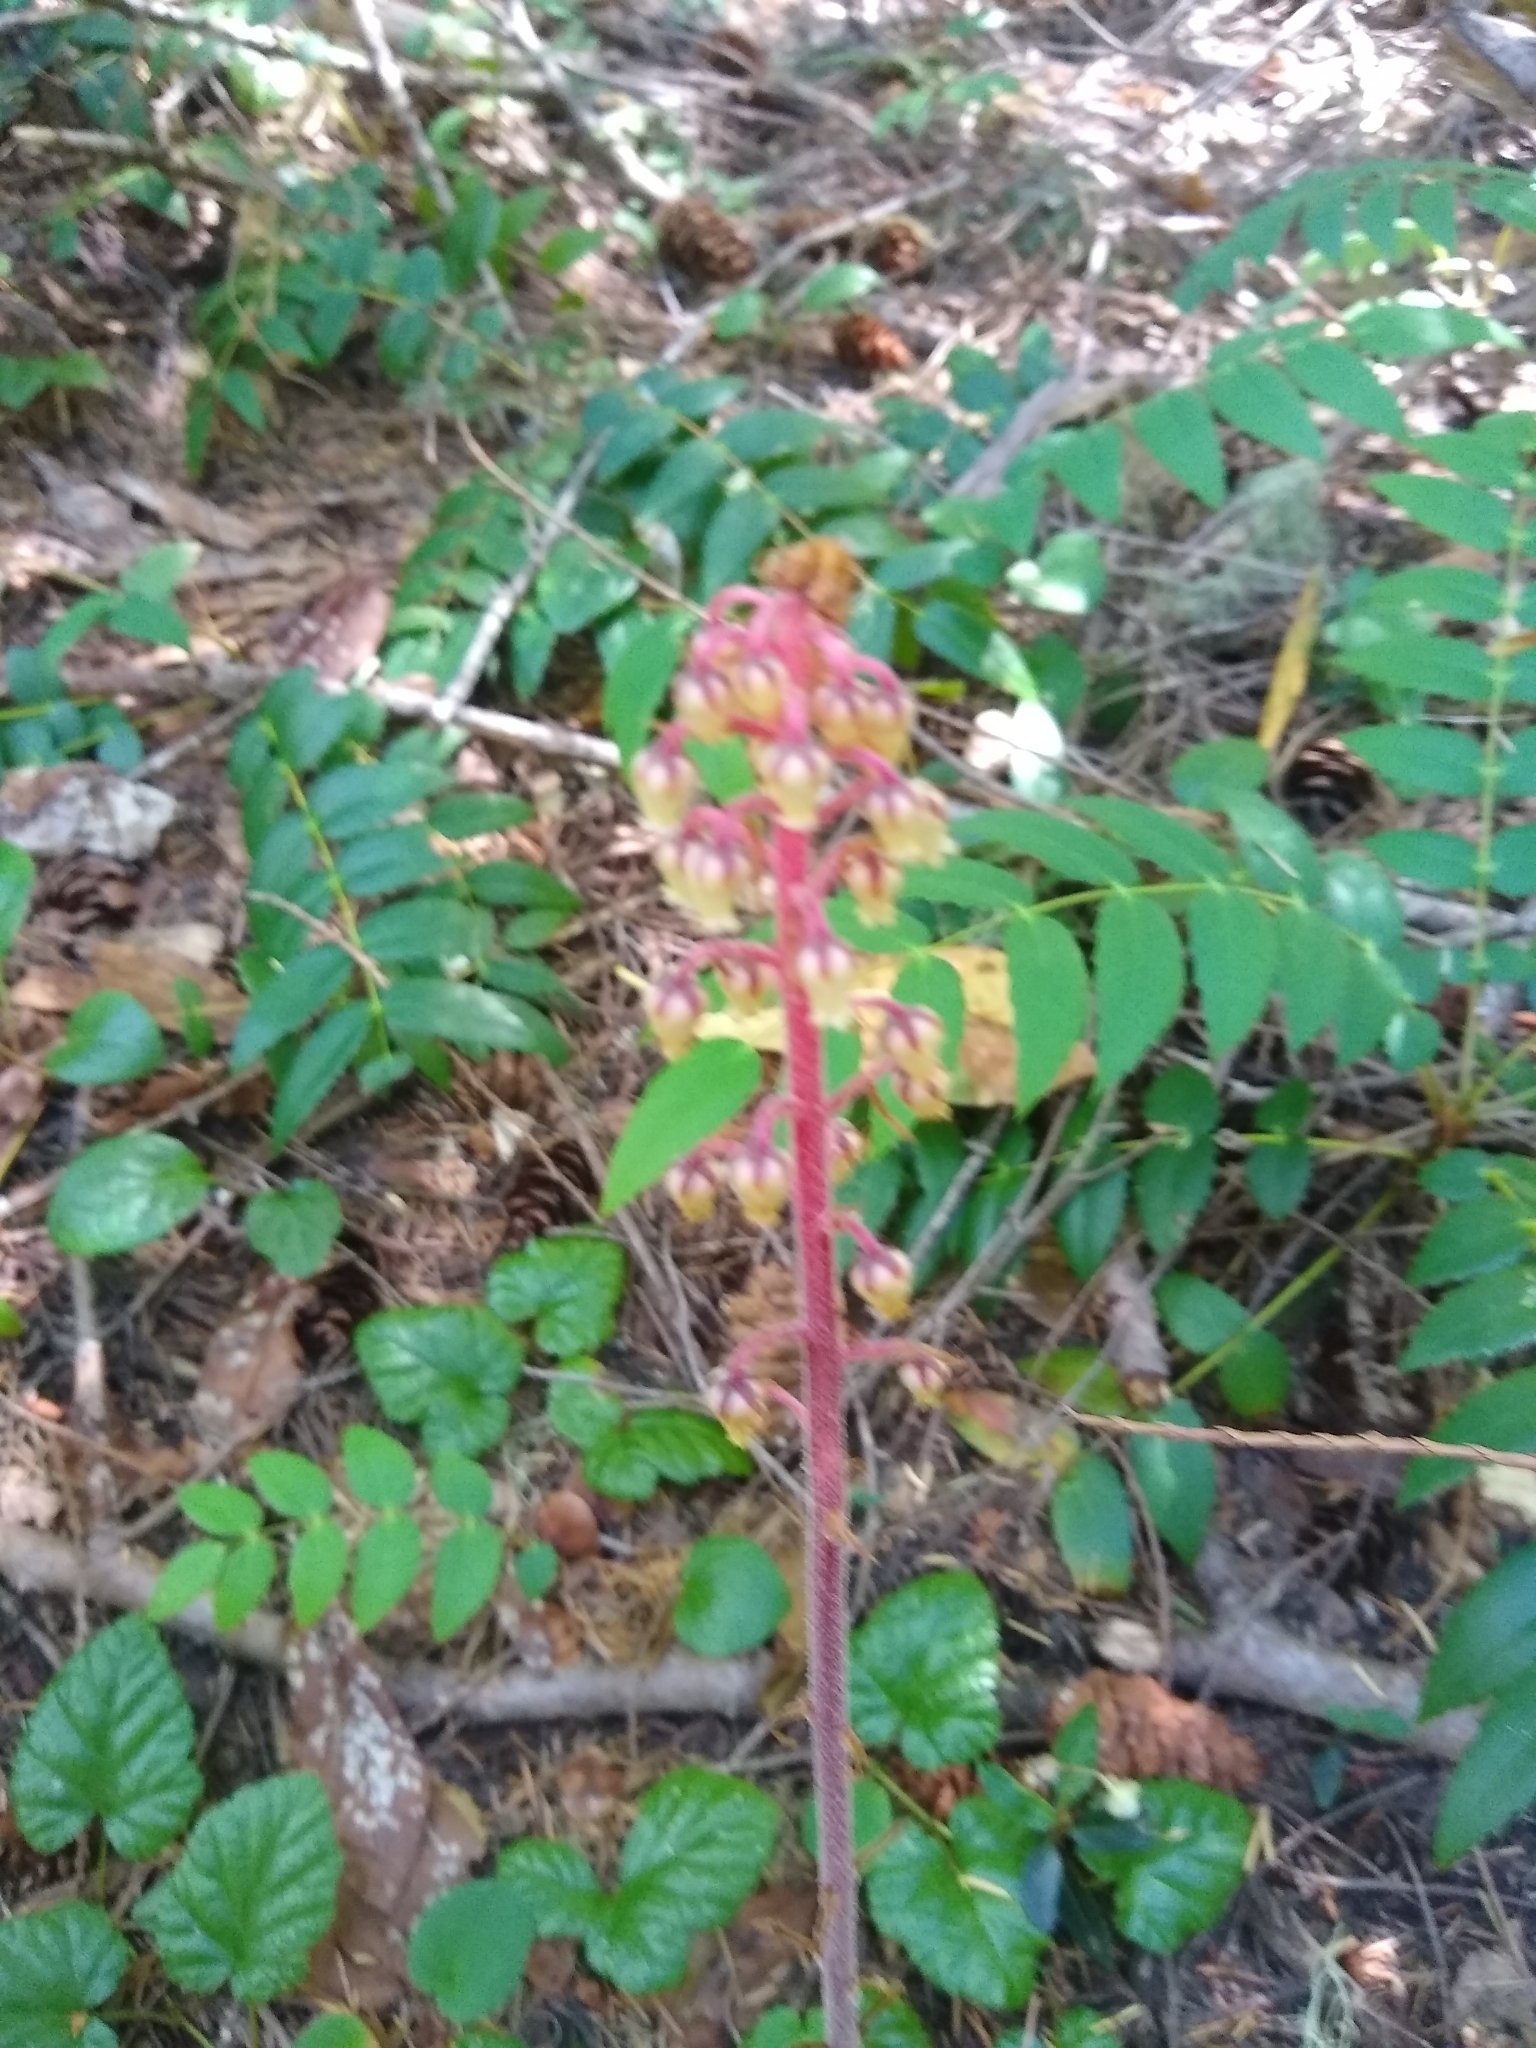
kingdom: Plantae
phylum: Tracheophyta
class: Magnoliopsida
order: Ericales
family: Ericaceae
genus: Pterospora
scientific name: Pterospora andromedea
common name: Giant bird's-nest
